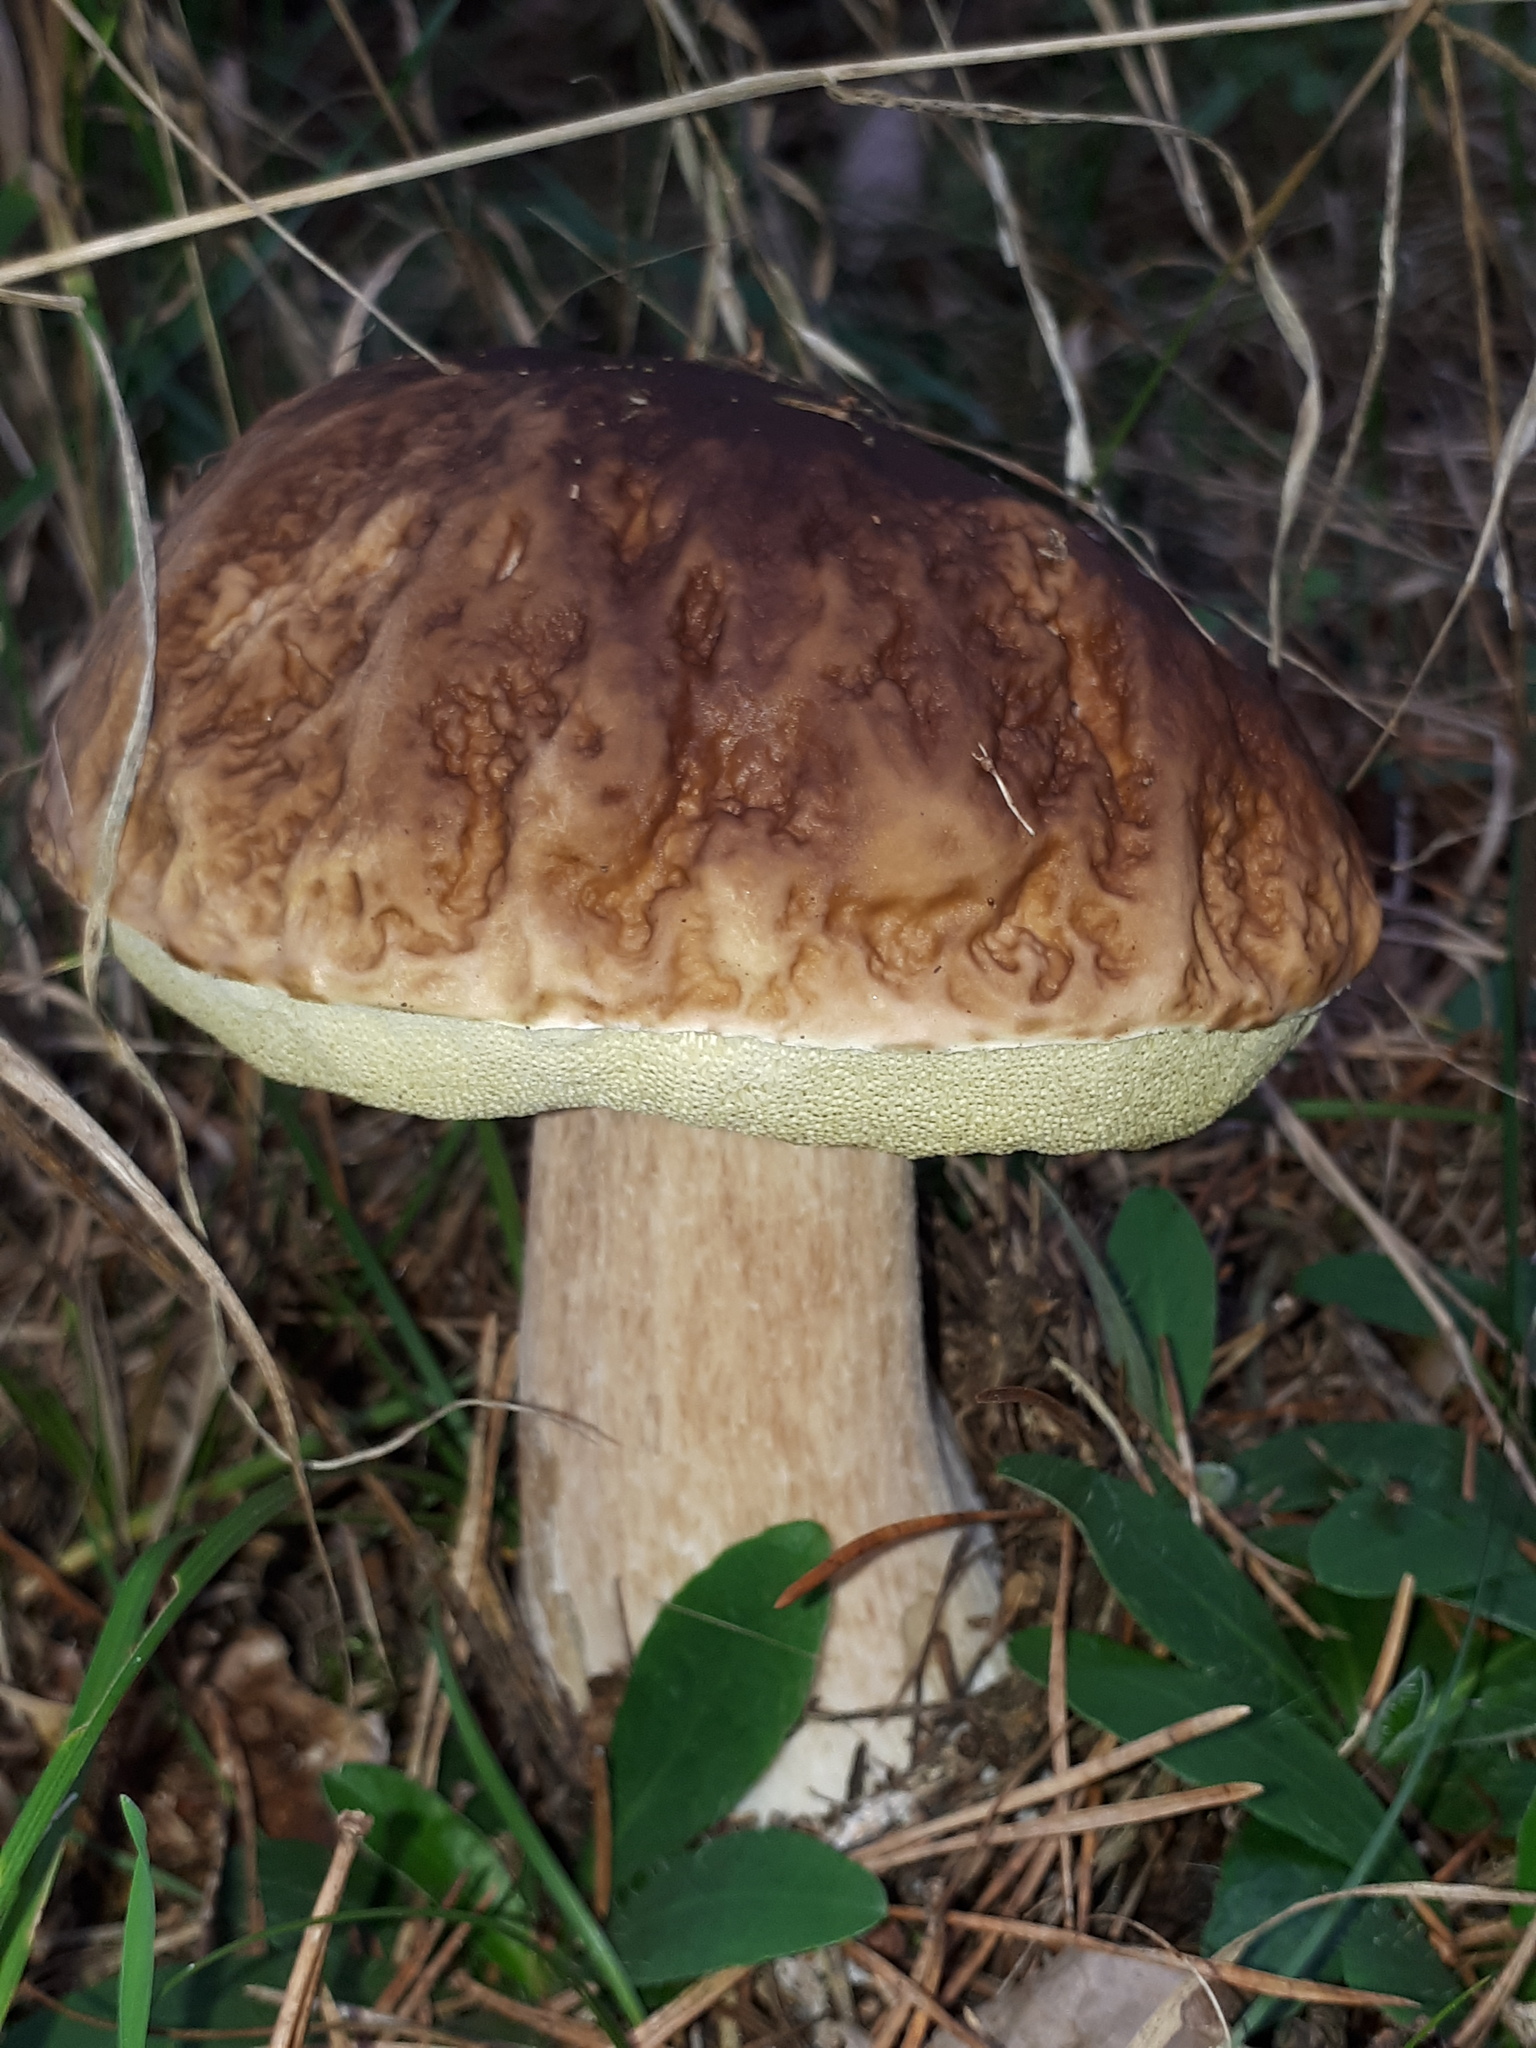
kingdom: Fungi
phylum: Basidiomycota
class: Agaricomycetes
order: Boletales
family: Boletaceae
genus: Boletus
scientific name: Boletus reticulatus
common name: Summer bolete
